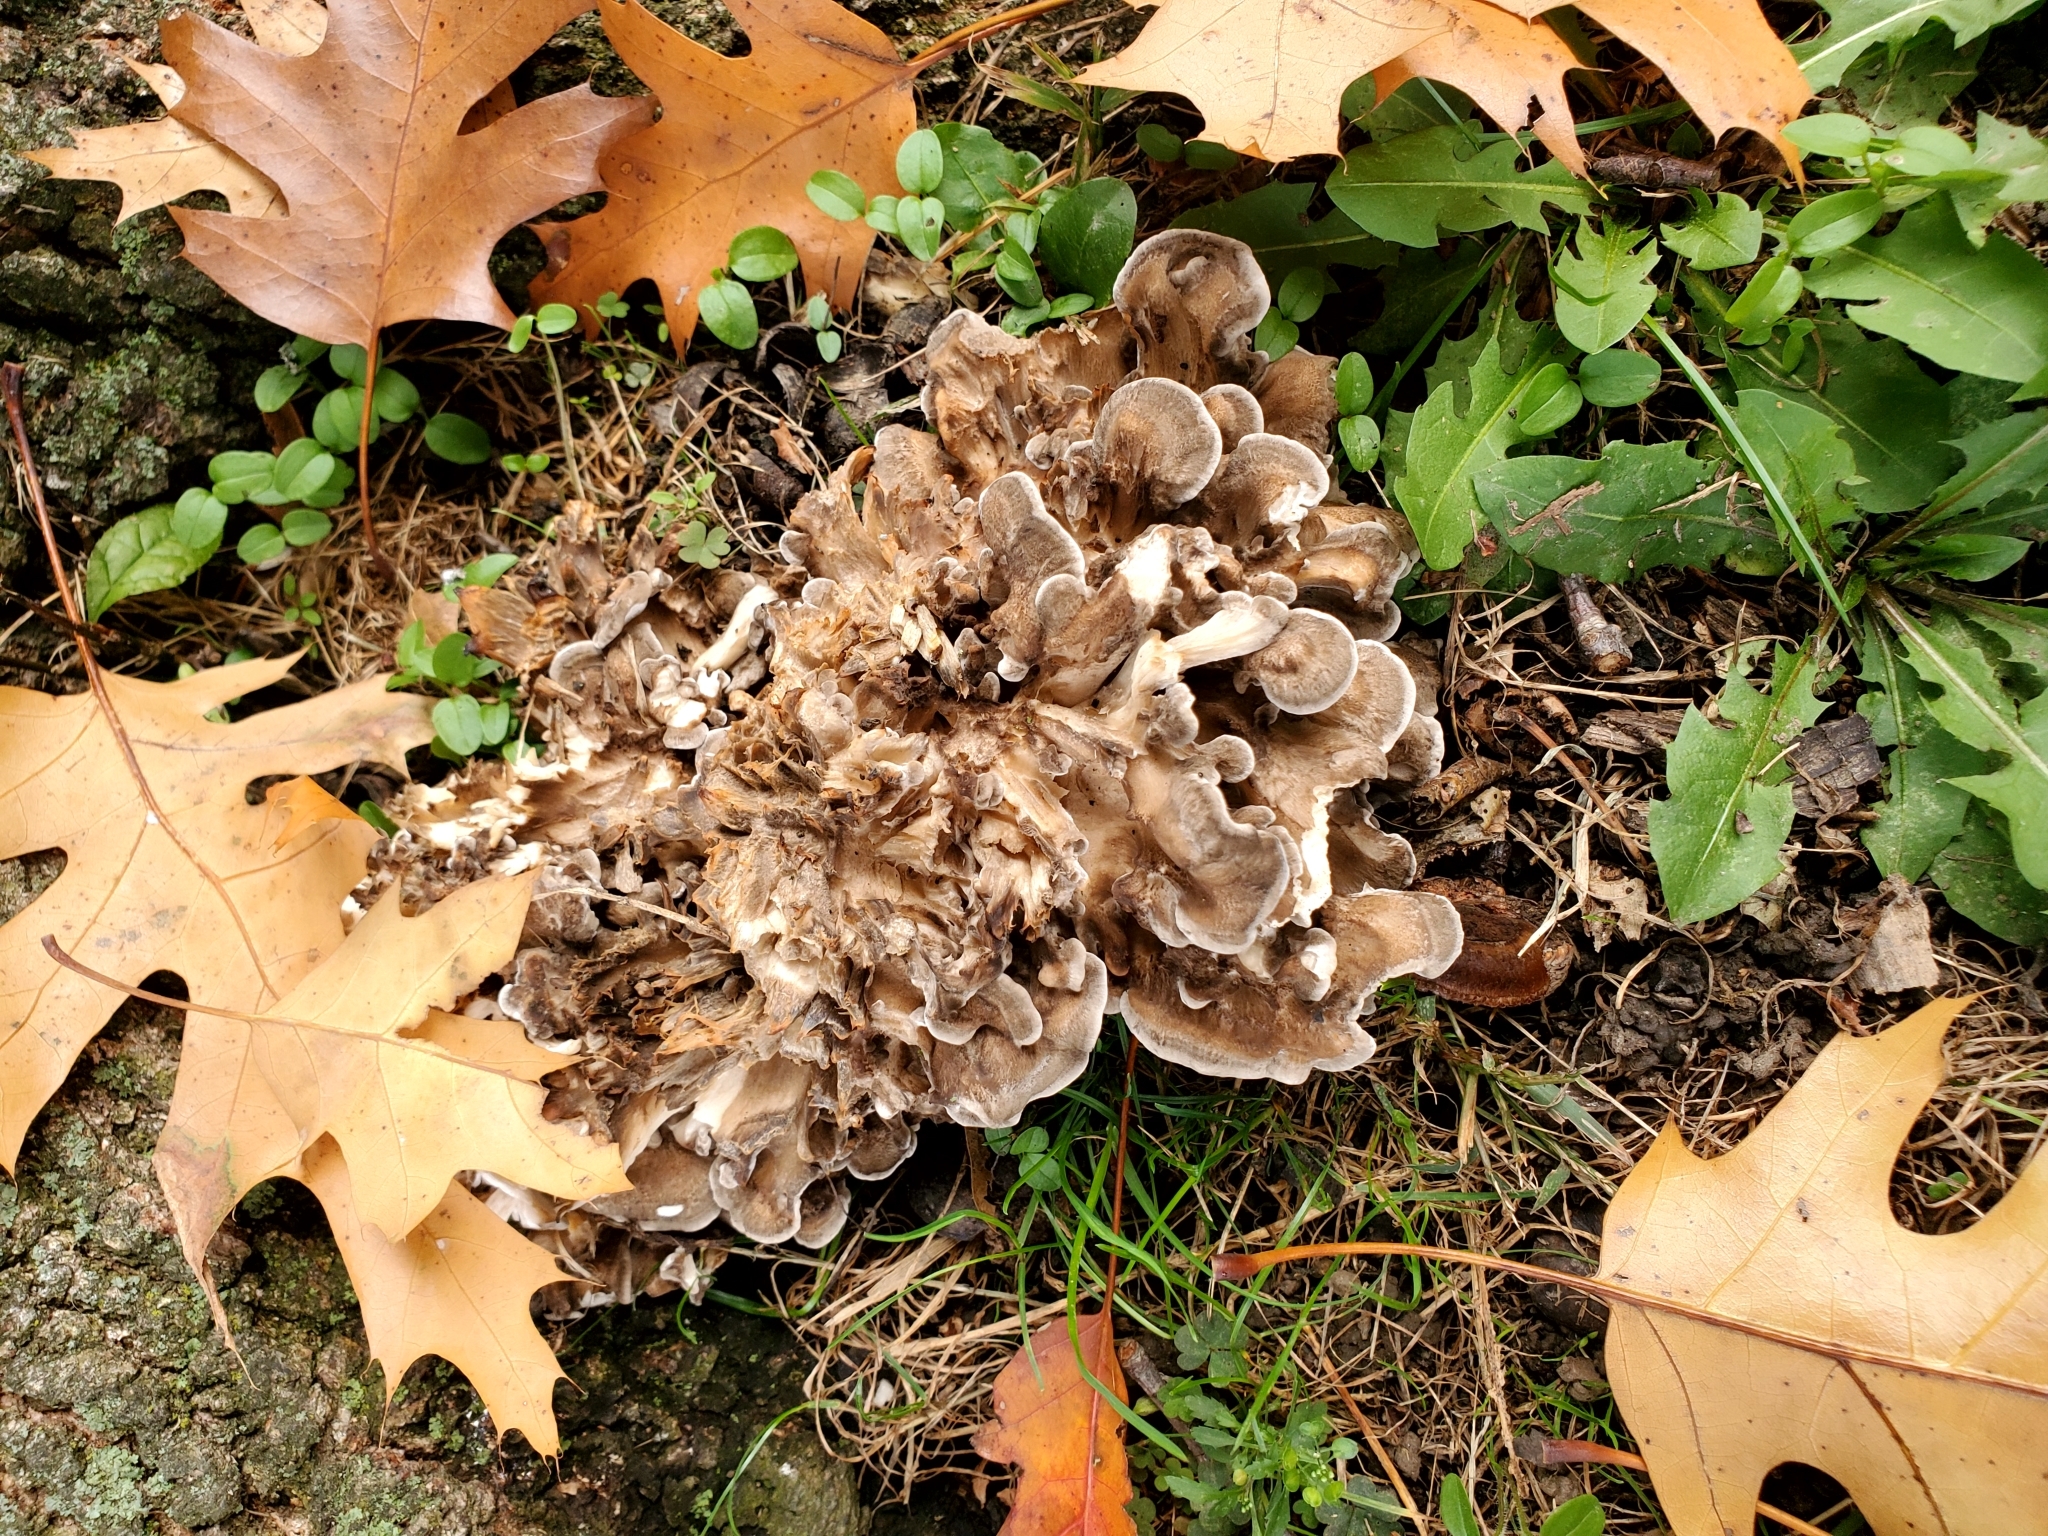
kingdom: Fungi
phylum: Basidiomycota
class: Agaricomycetes
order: Polyporales
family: Grifolaceae
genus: Grifola
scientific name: Grifola frondosa
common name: Hen of the woods
